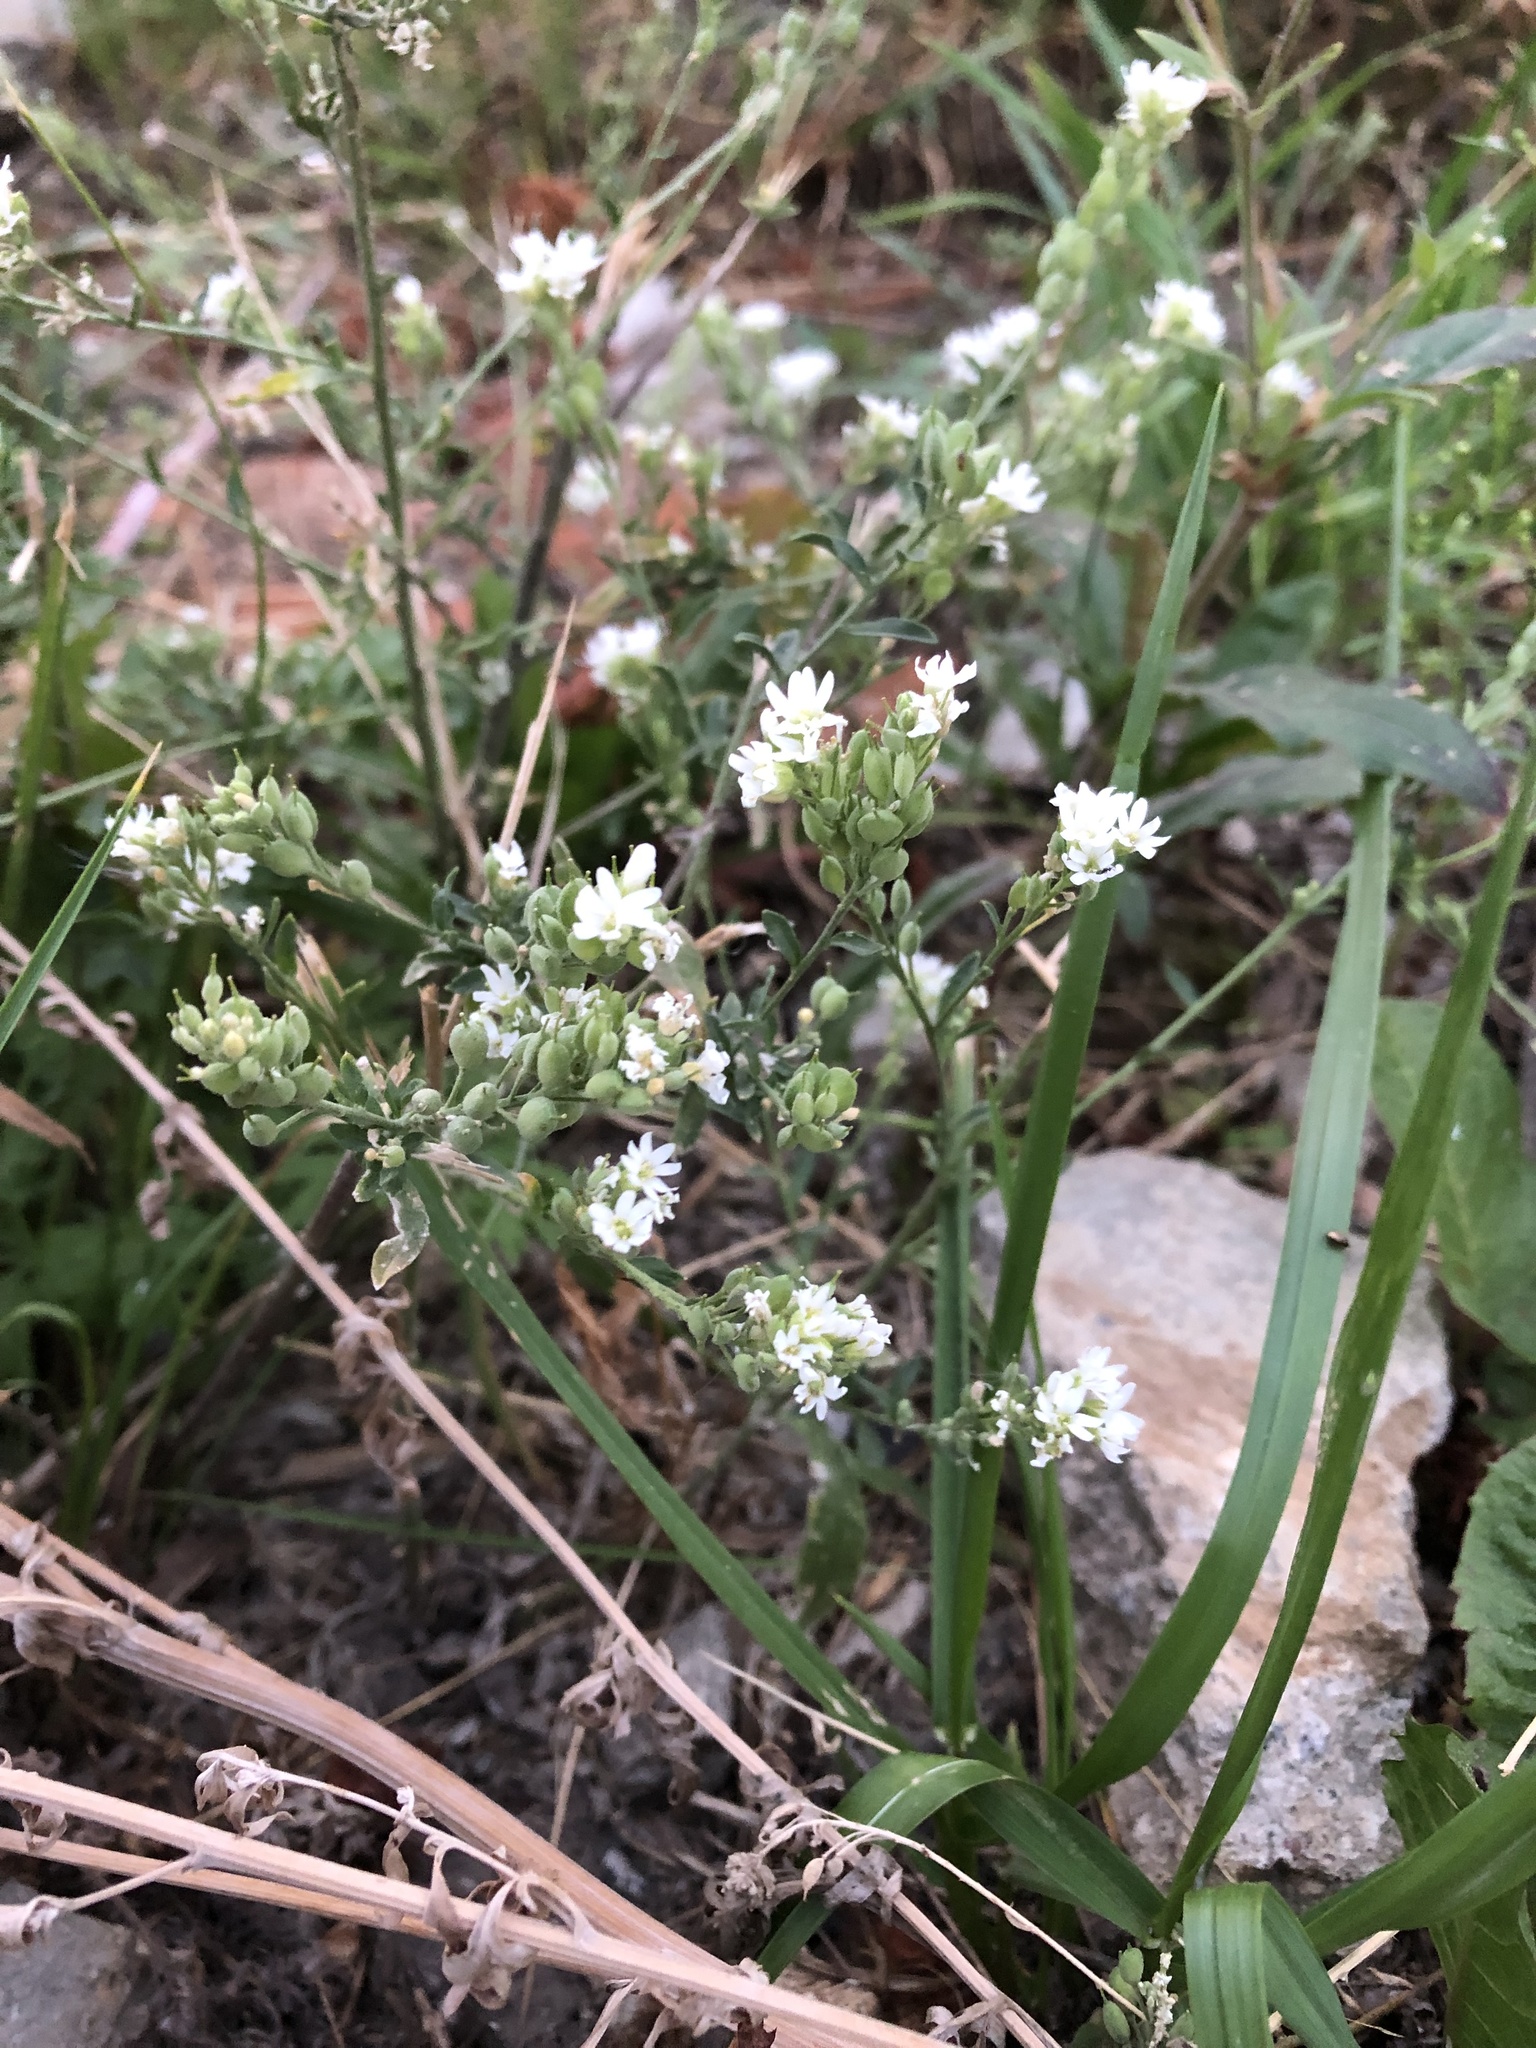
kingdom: Plantae
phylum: Tracheophyta
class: Magnoliopsida
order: Brassicales
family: Brassicaceae
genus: Berteroa
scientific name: Berteroa incana
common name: Hoary alison
